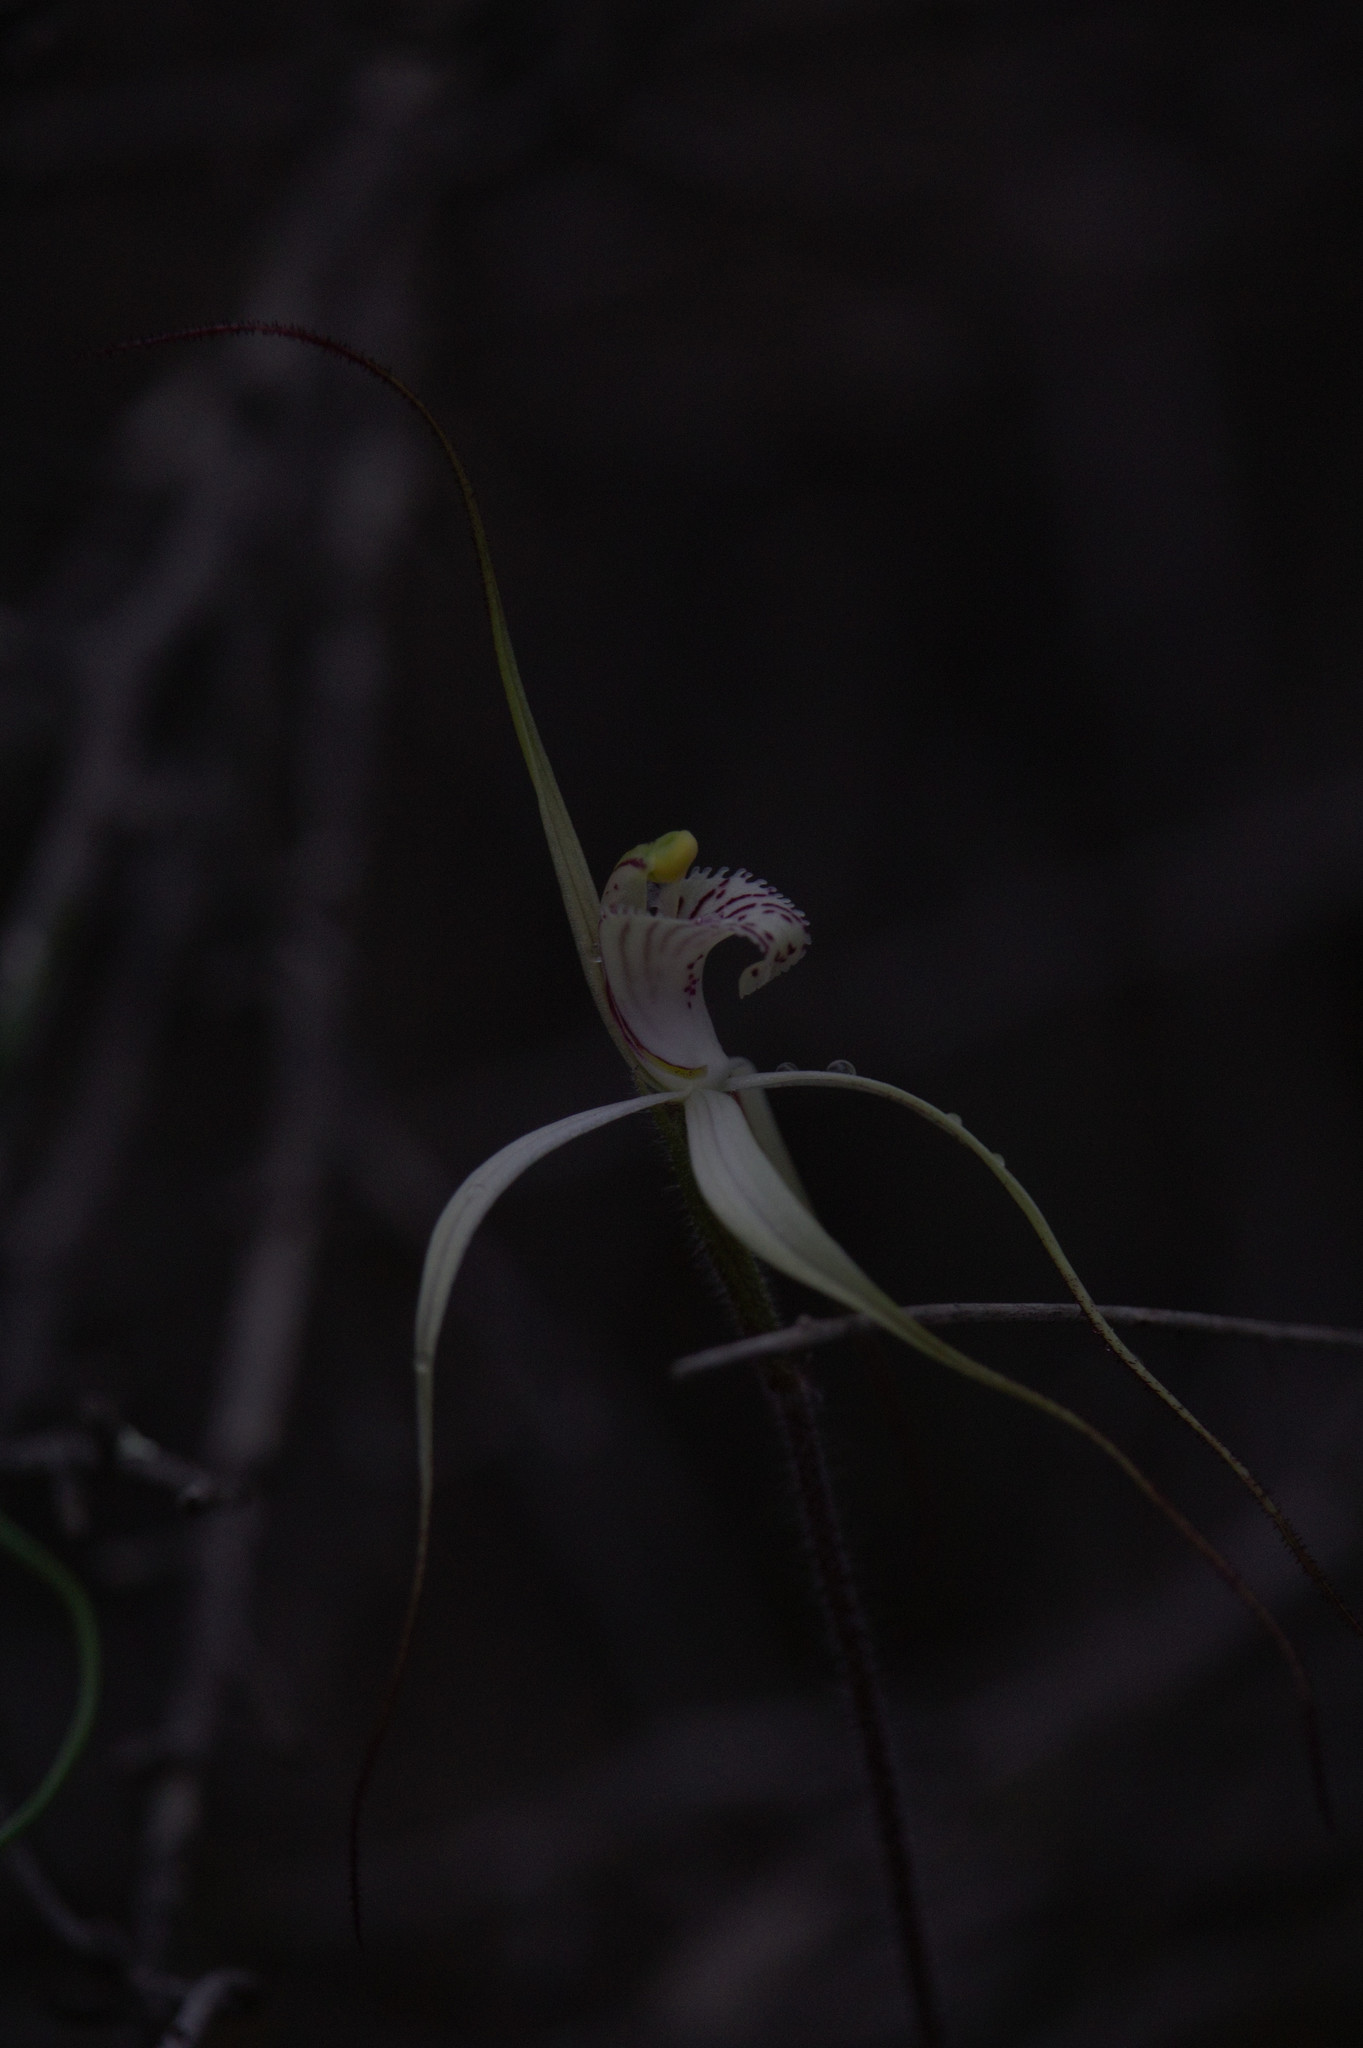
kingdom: Plantae
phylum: Tracheophyta
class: Liliopsida
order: Asparagales
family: Orchidaceae
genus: Caladenia
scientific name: Caladenia varians
